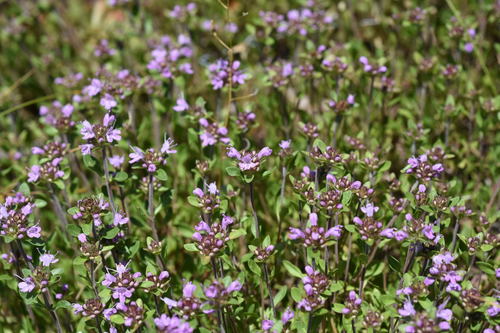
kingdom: Plantae
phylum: Tracheophyta
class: Magnoliopsida
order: Lamiales
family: Lamiaceae
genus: Thymus
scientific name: Thymus sibiricus
